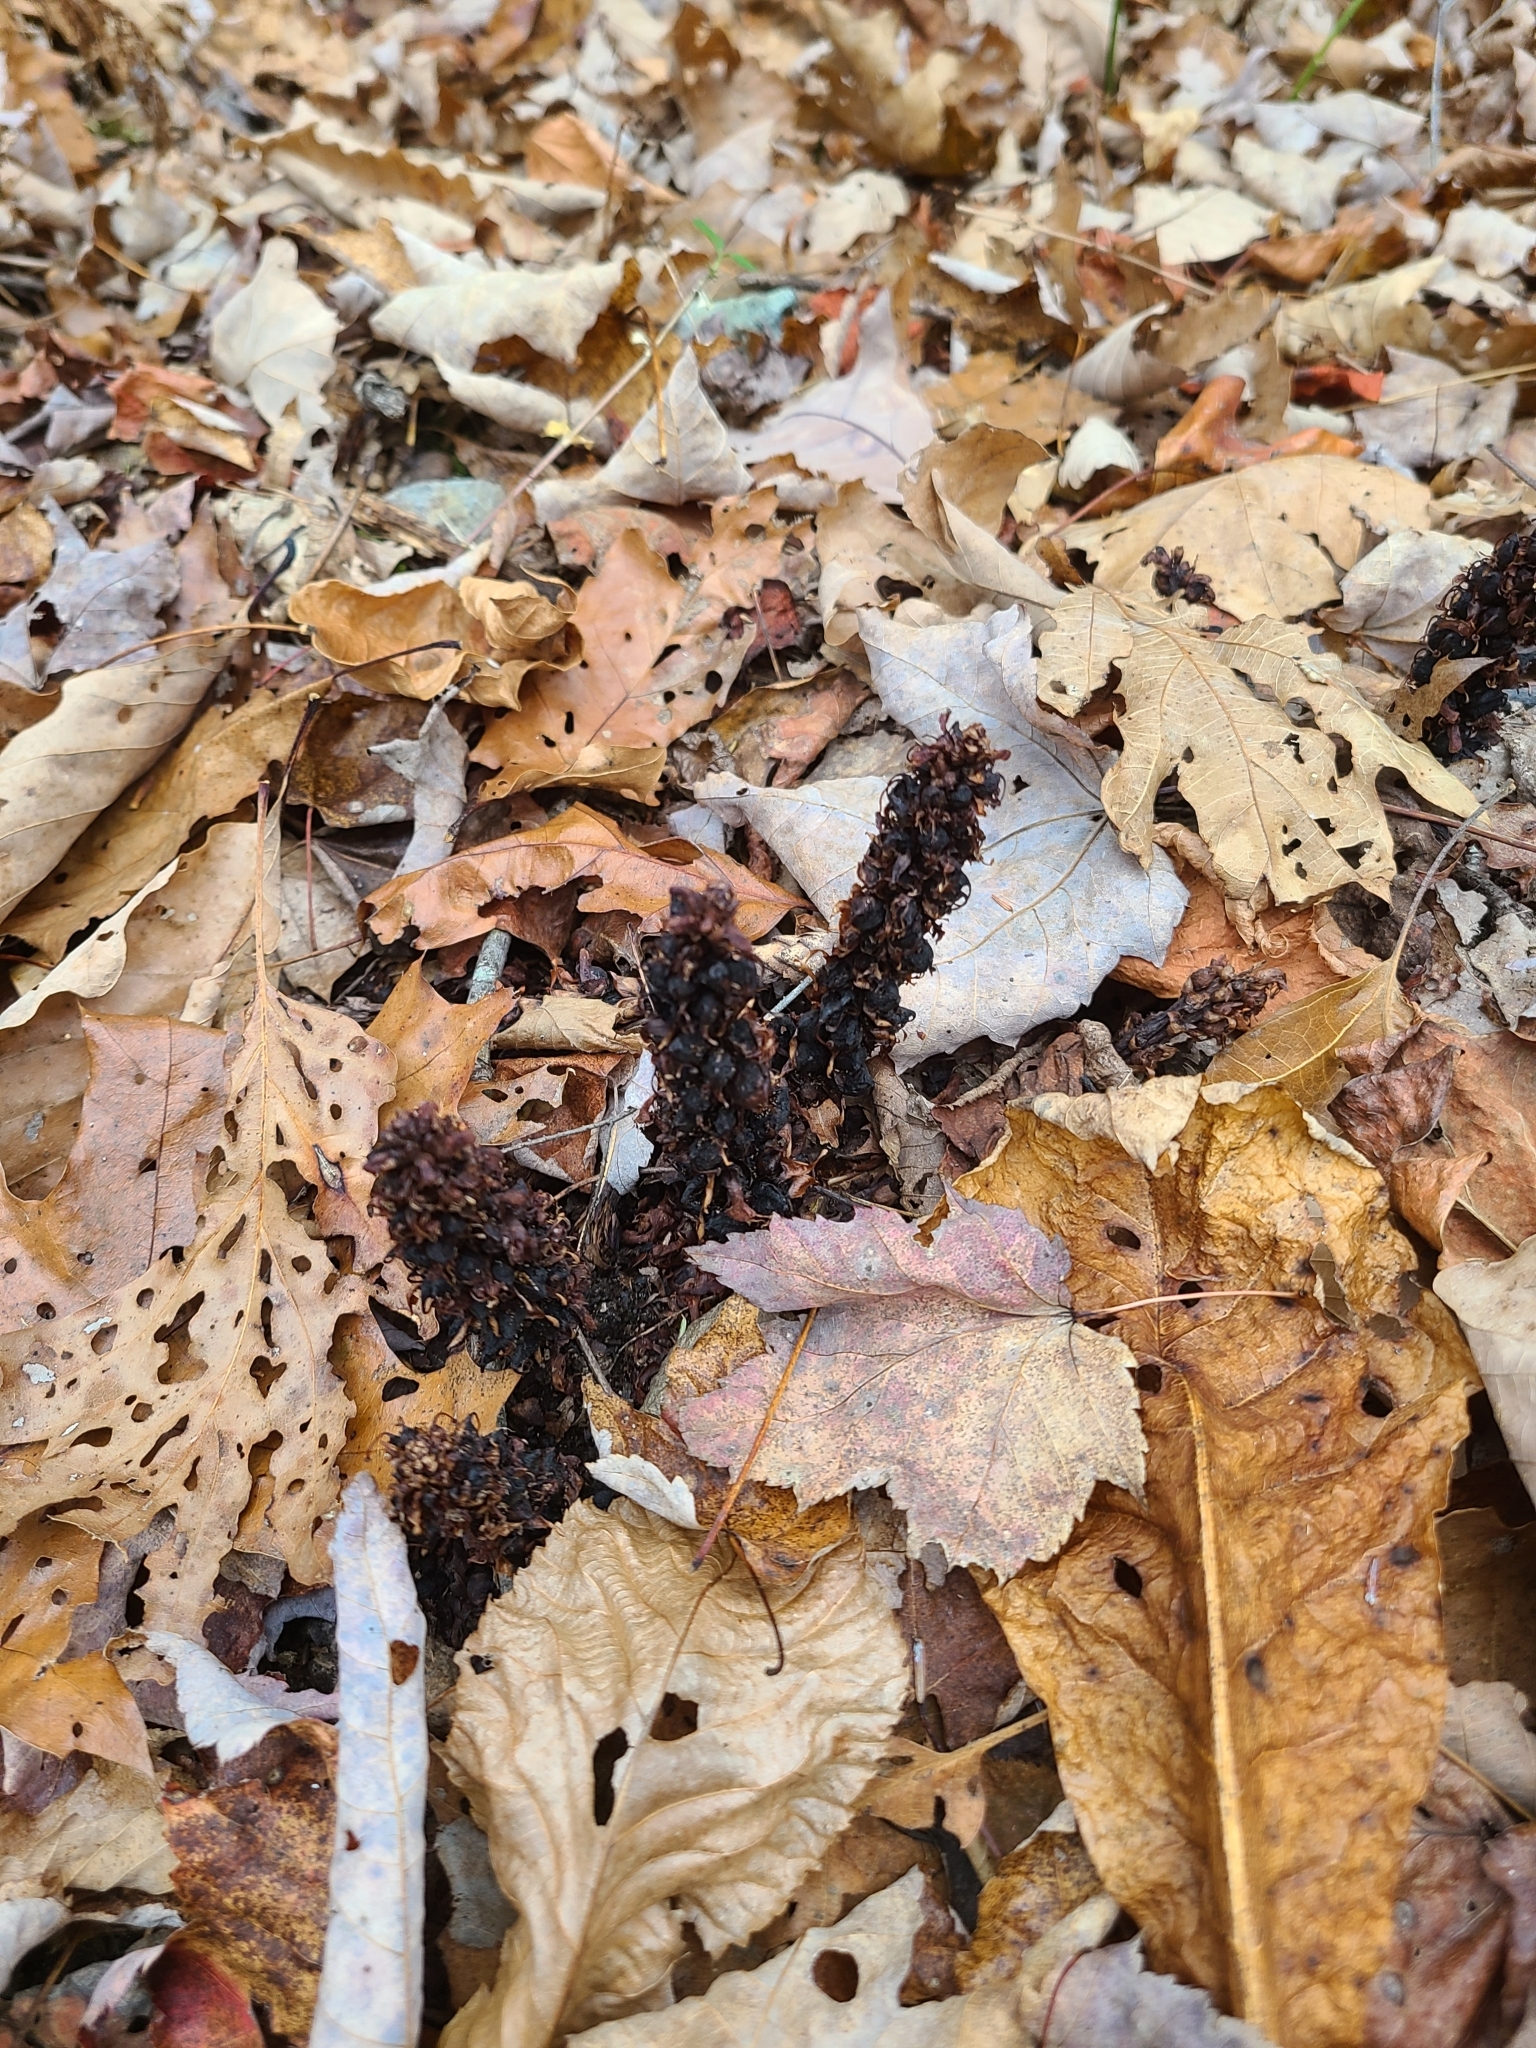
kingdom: Plantae
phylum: Tracheophyta
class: Magnoliopsida
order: Lamiales
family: Orobanchaceae
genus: Conopholis
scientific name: Conopholis americana
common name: American cancer-root
